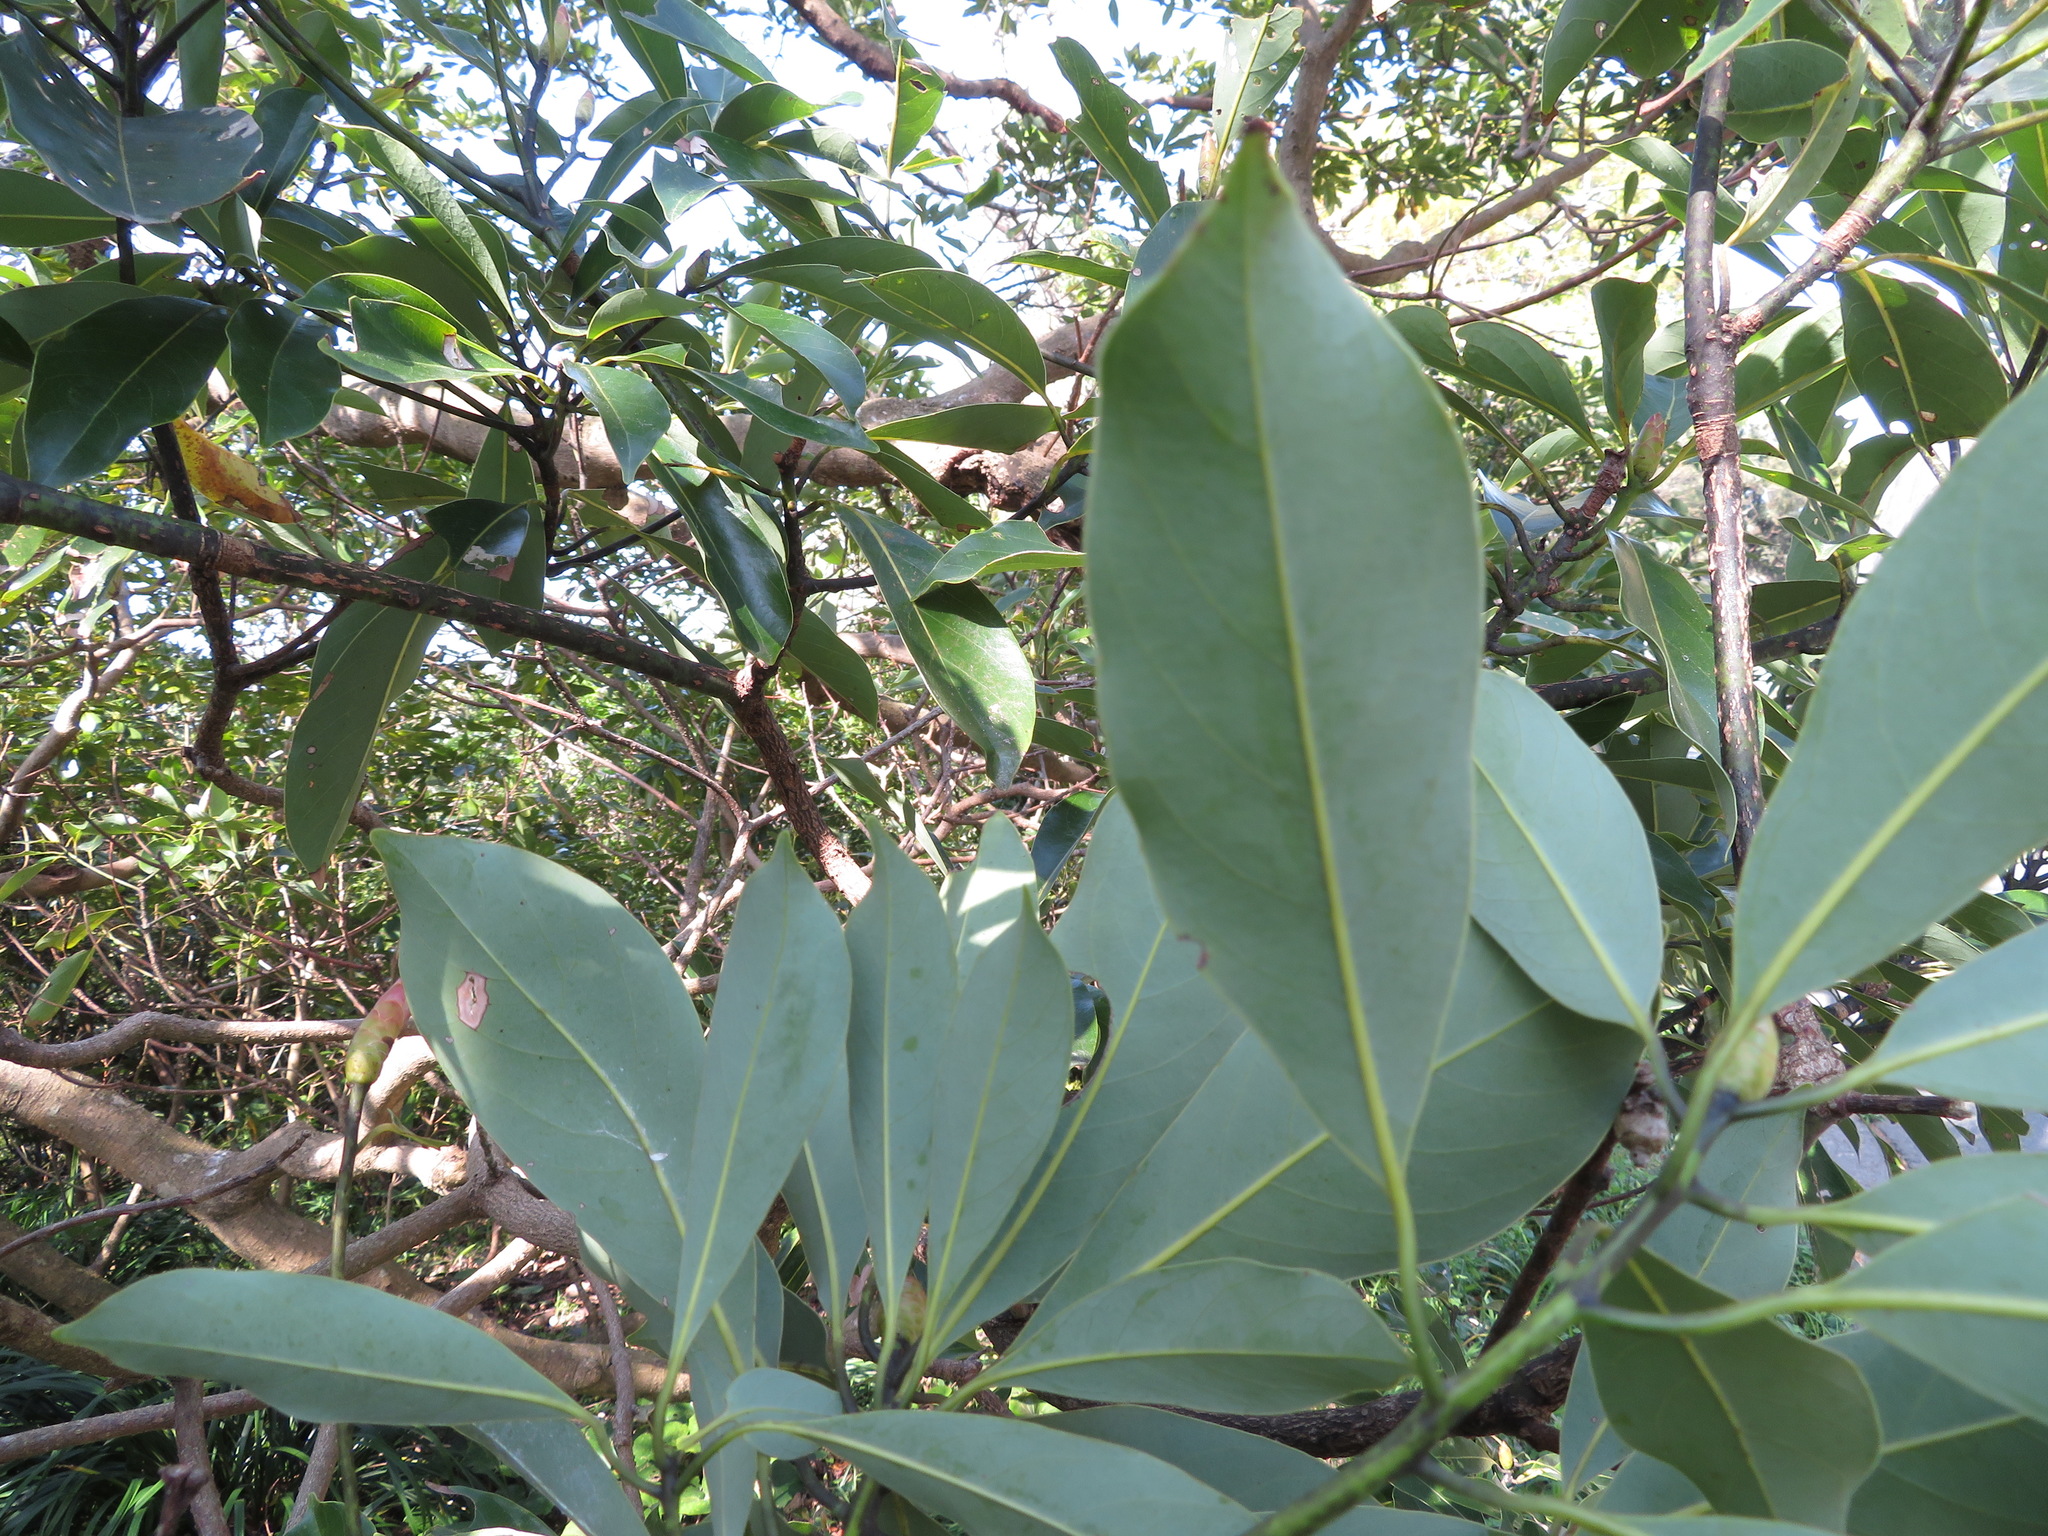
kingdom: Plantae
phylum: Tracheophyta
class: Magnoliopsida
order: Laurales
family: Lauraceae
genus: Machilus
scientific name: Machilus thunbergii
